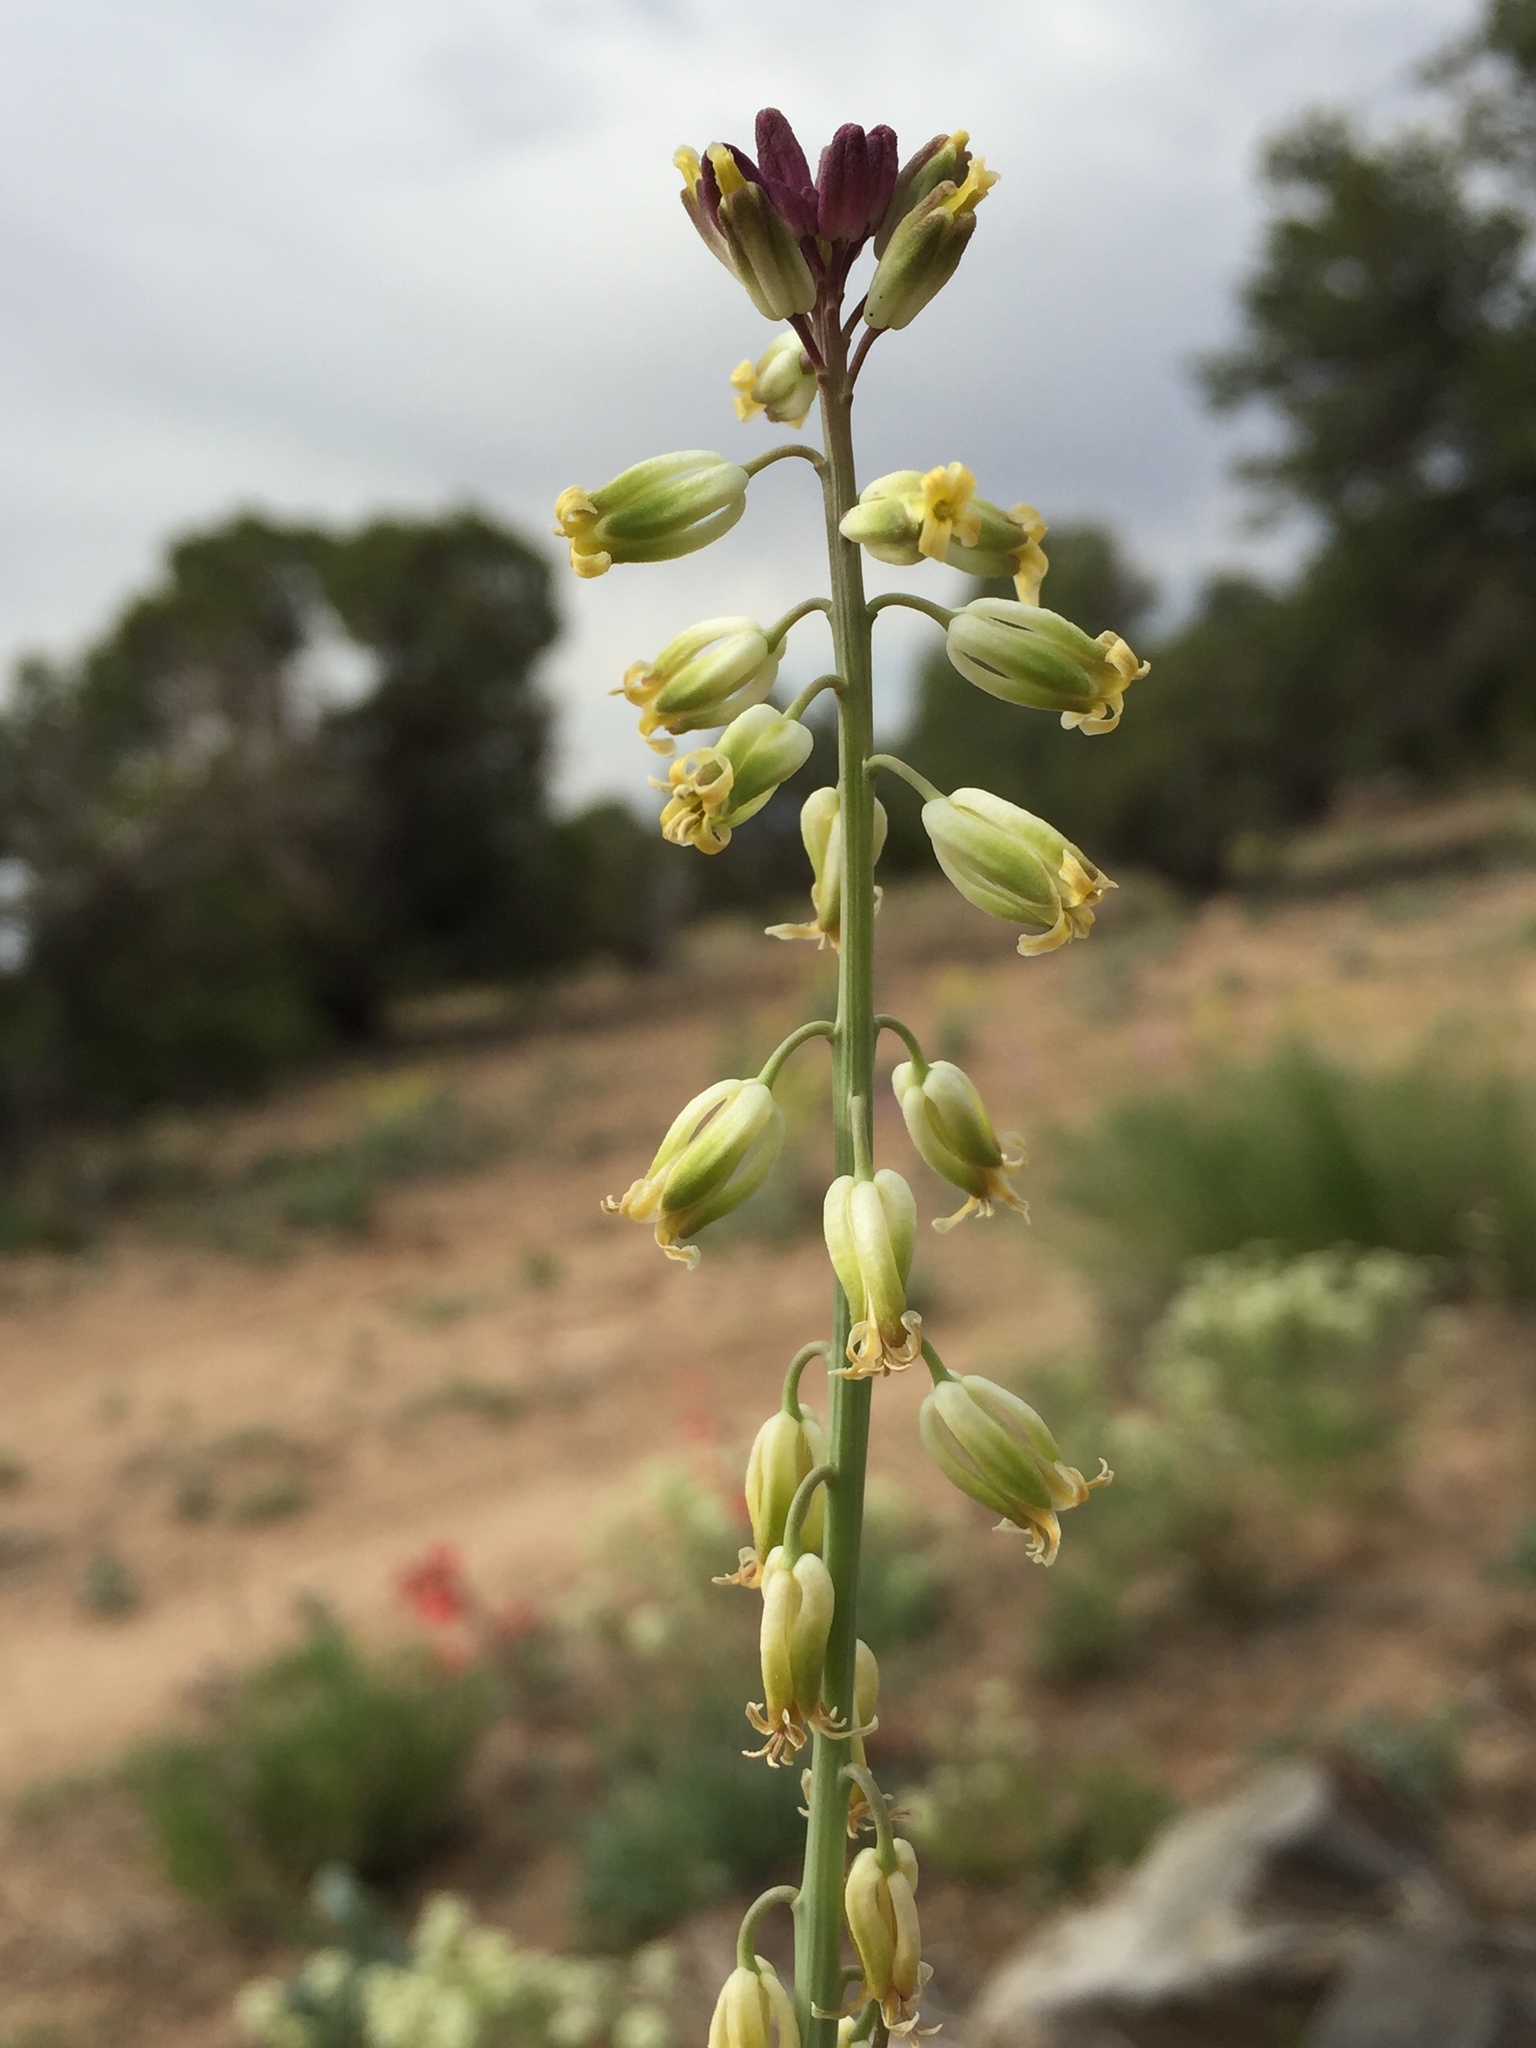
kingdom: Plantae
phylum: Tracheophyta
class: Magnoliopsida
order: Brassicales
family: Brassicaceae
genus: Streptanthus
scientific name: Streptanthus longirostris
